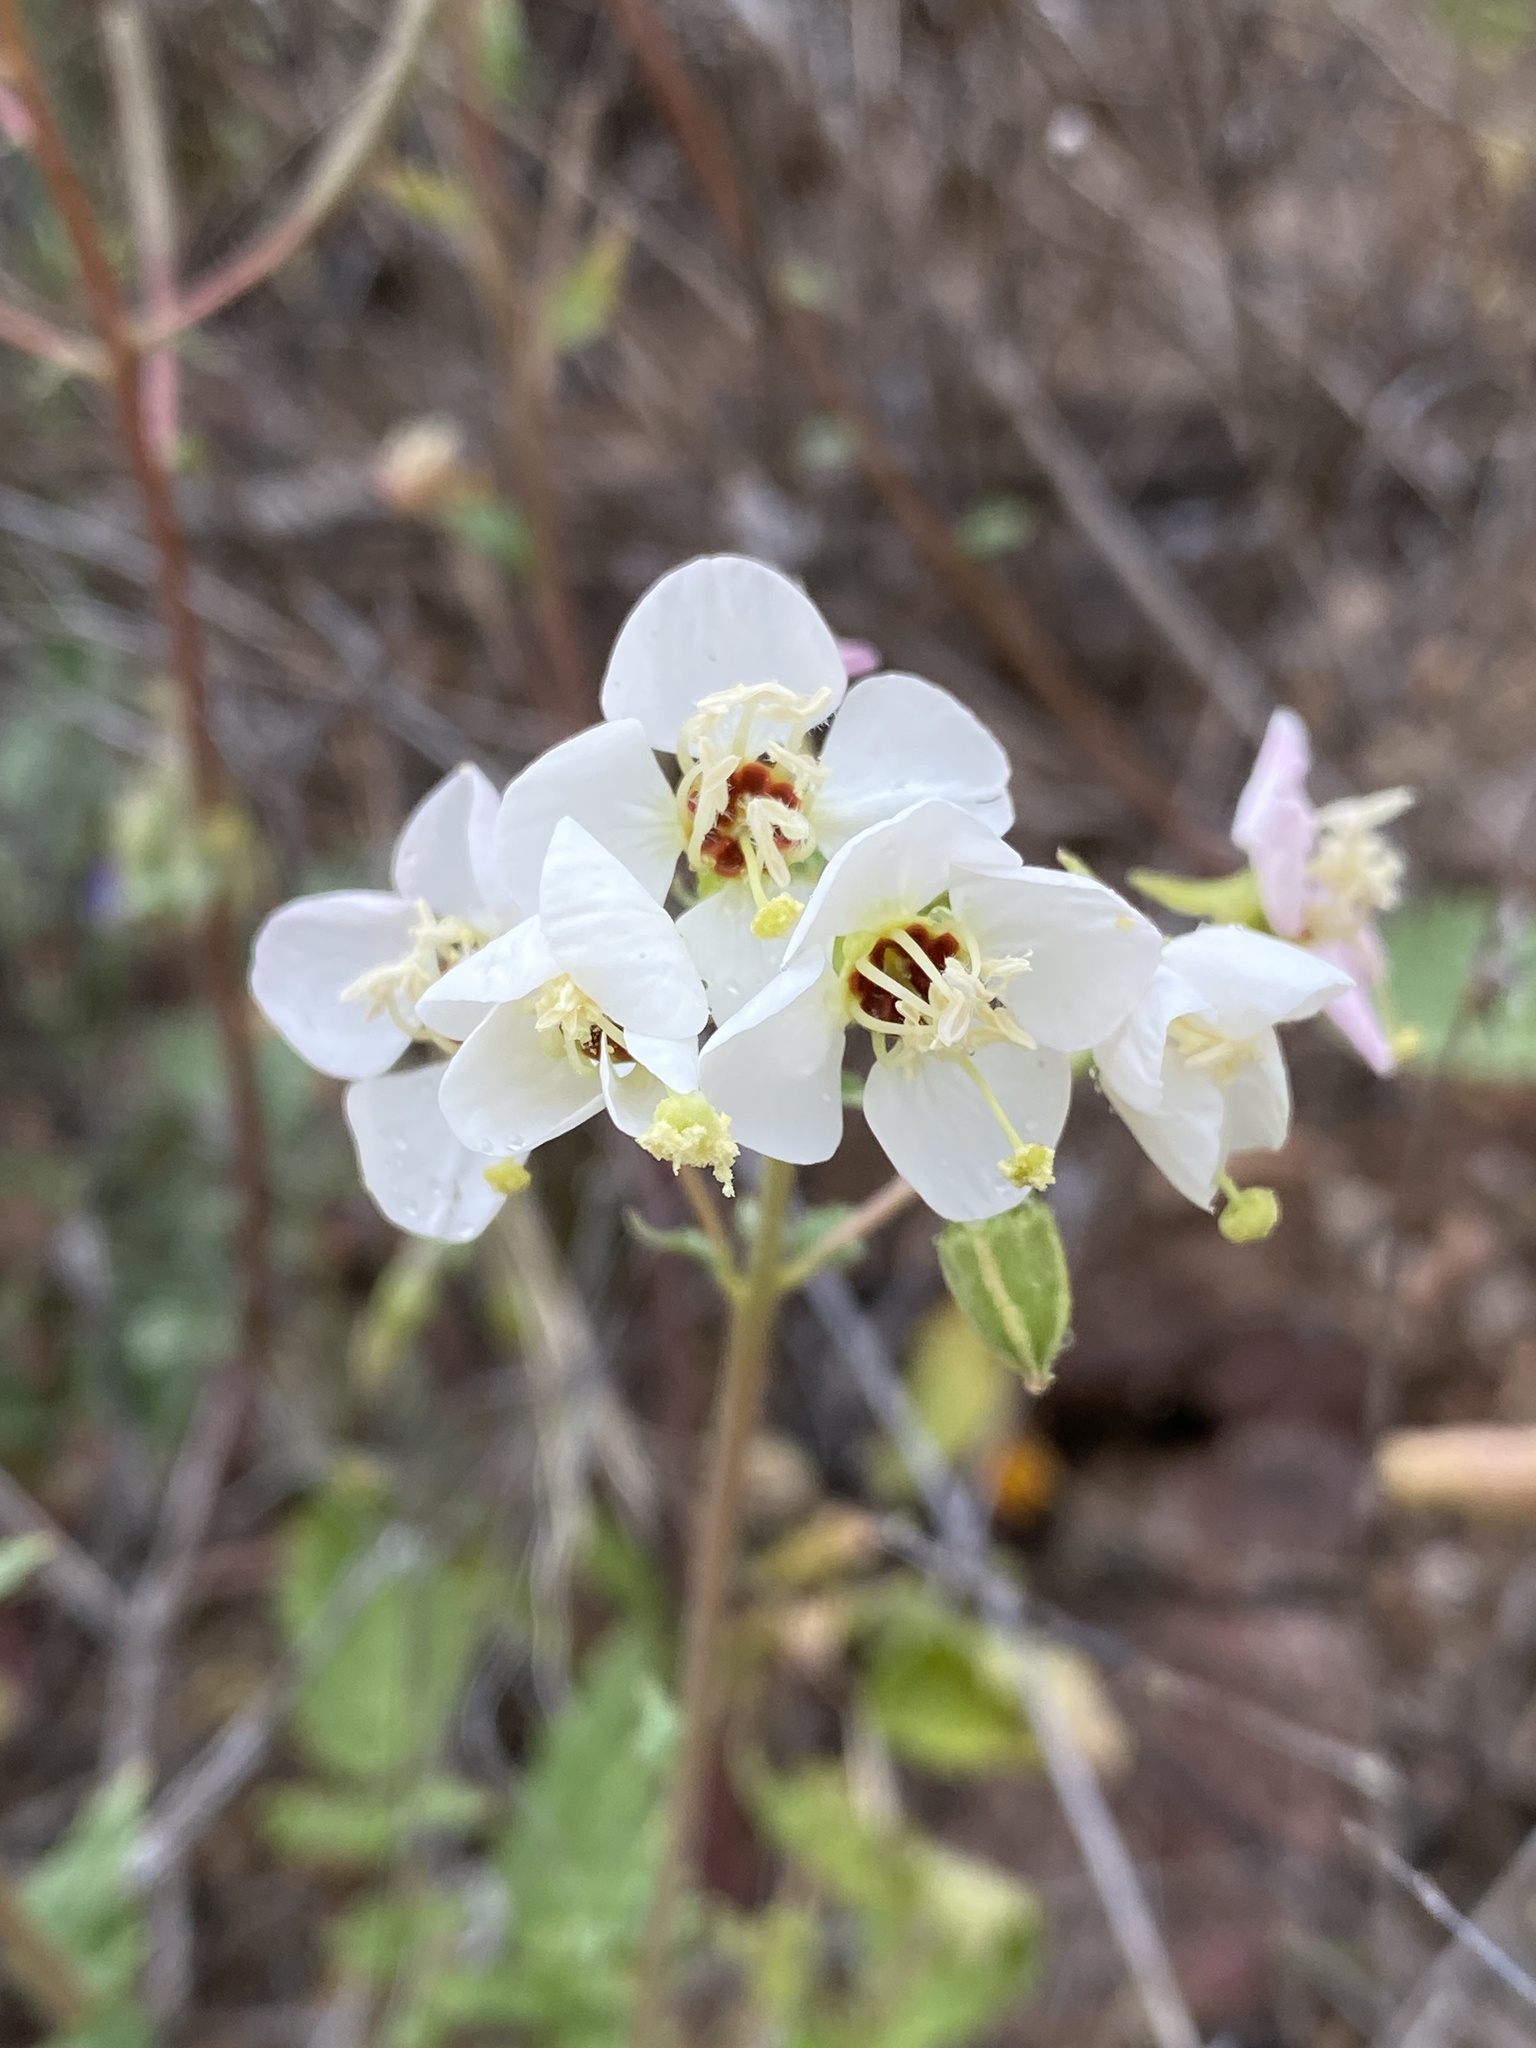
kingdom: Plantae
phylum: Tracheophyta
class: Magnoliopsida
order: Myrtales
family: Onagraceae
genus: Chylismia
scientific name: Chylismia claviformis
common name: Browneyes
